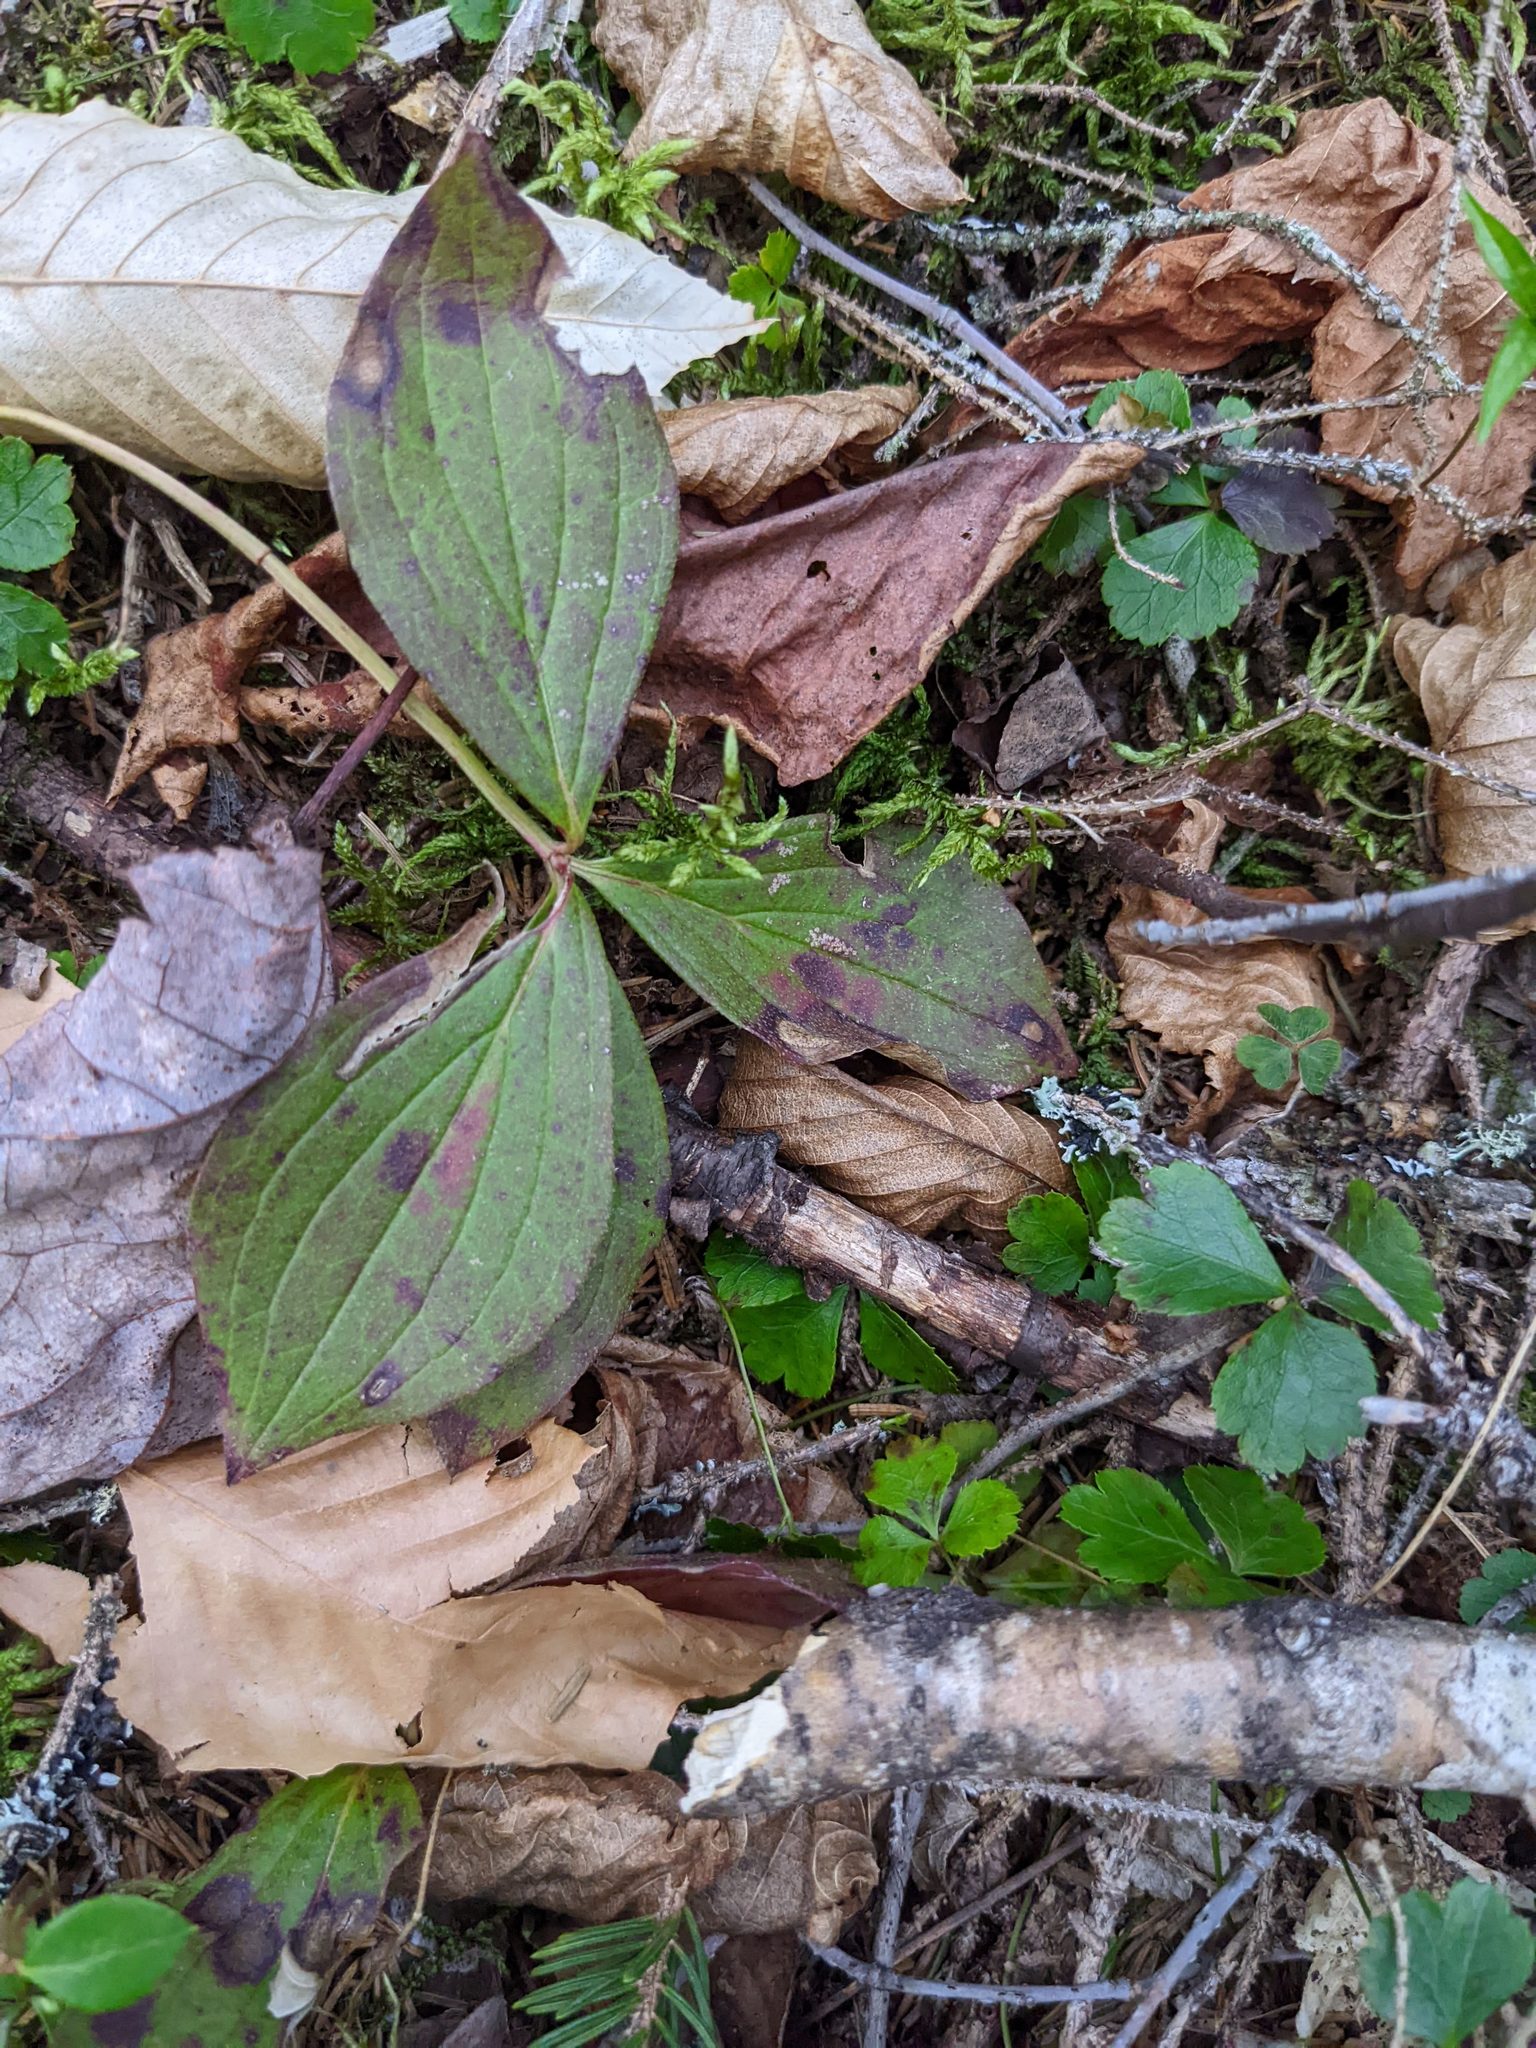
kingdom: Plantae
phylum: Tracheophyta
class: Magnoliopsida
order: Cornales
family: Cornaceae
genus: Cornus
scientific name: Cornus canadensis
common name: Creeping dogwood
